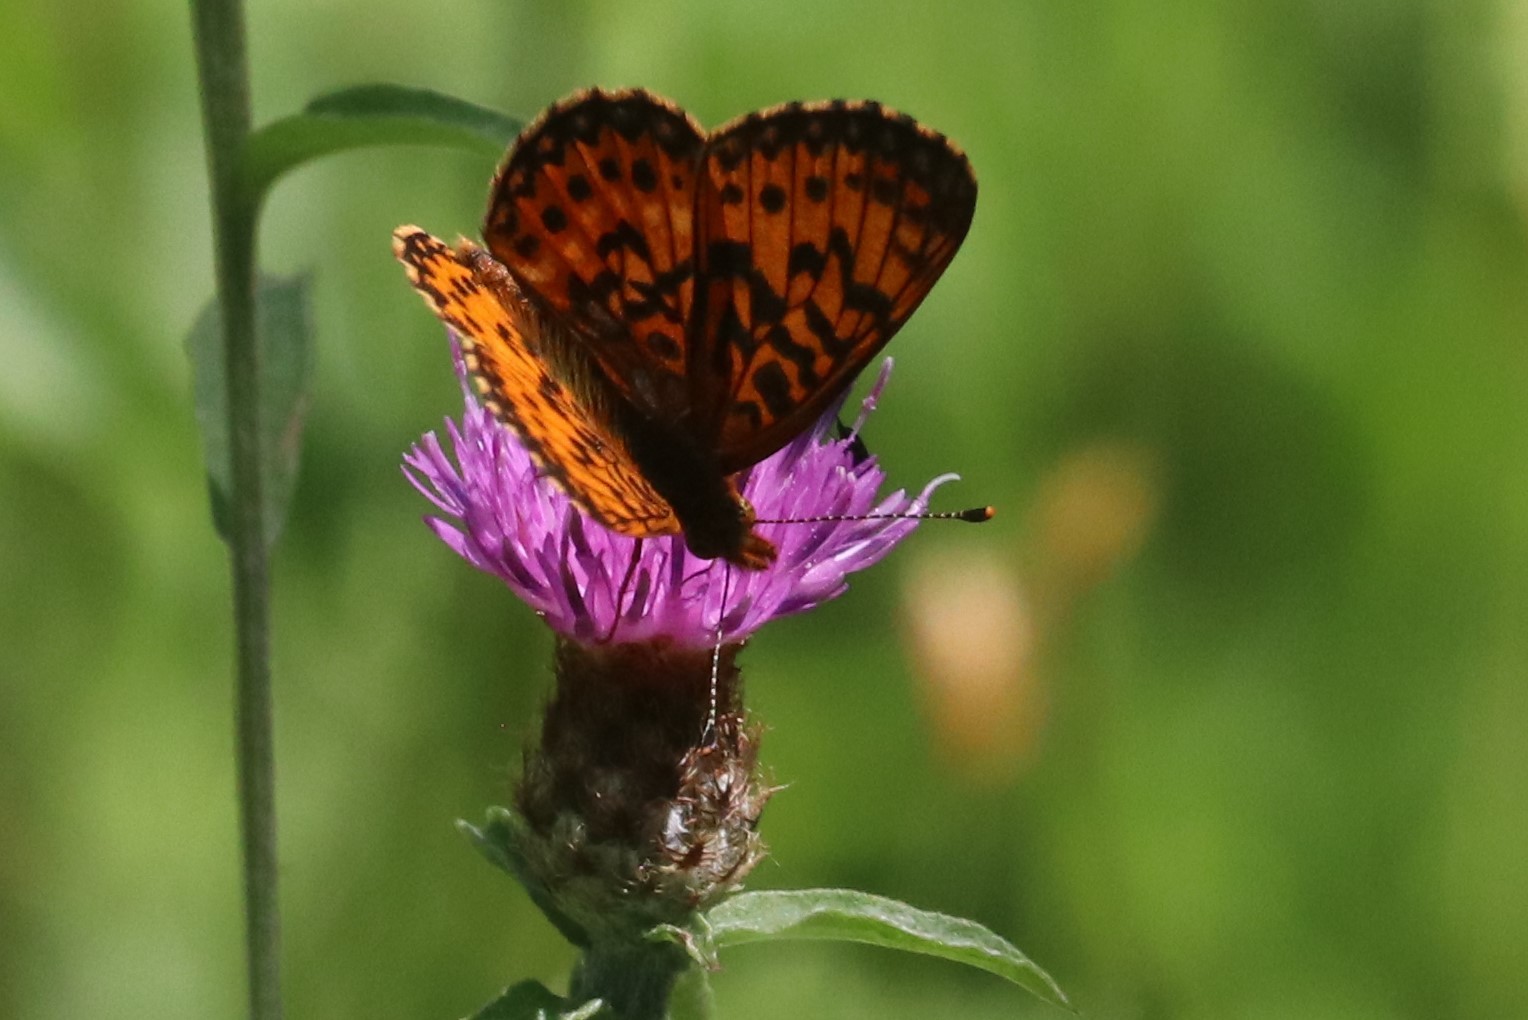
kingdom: Animalia
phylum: Arthropoda
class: Insecta
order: Lepidoptera
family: Nymphalidae
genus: Boloria
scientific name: Boloria
